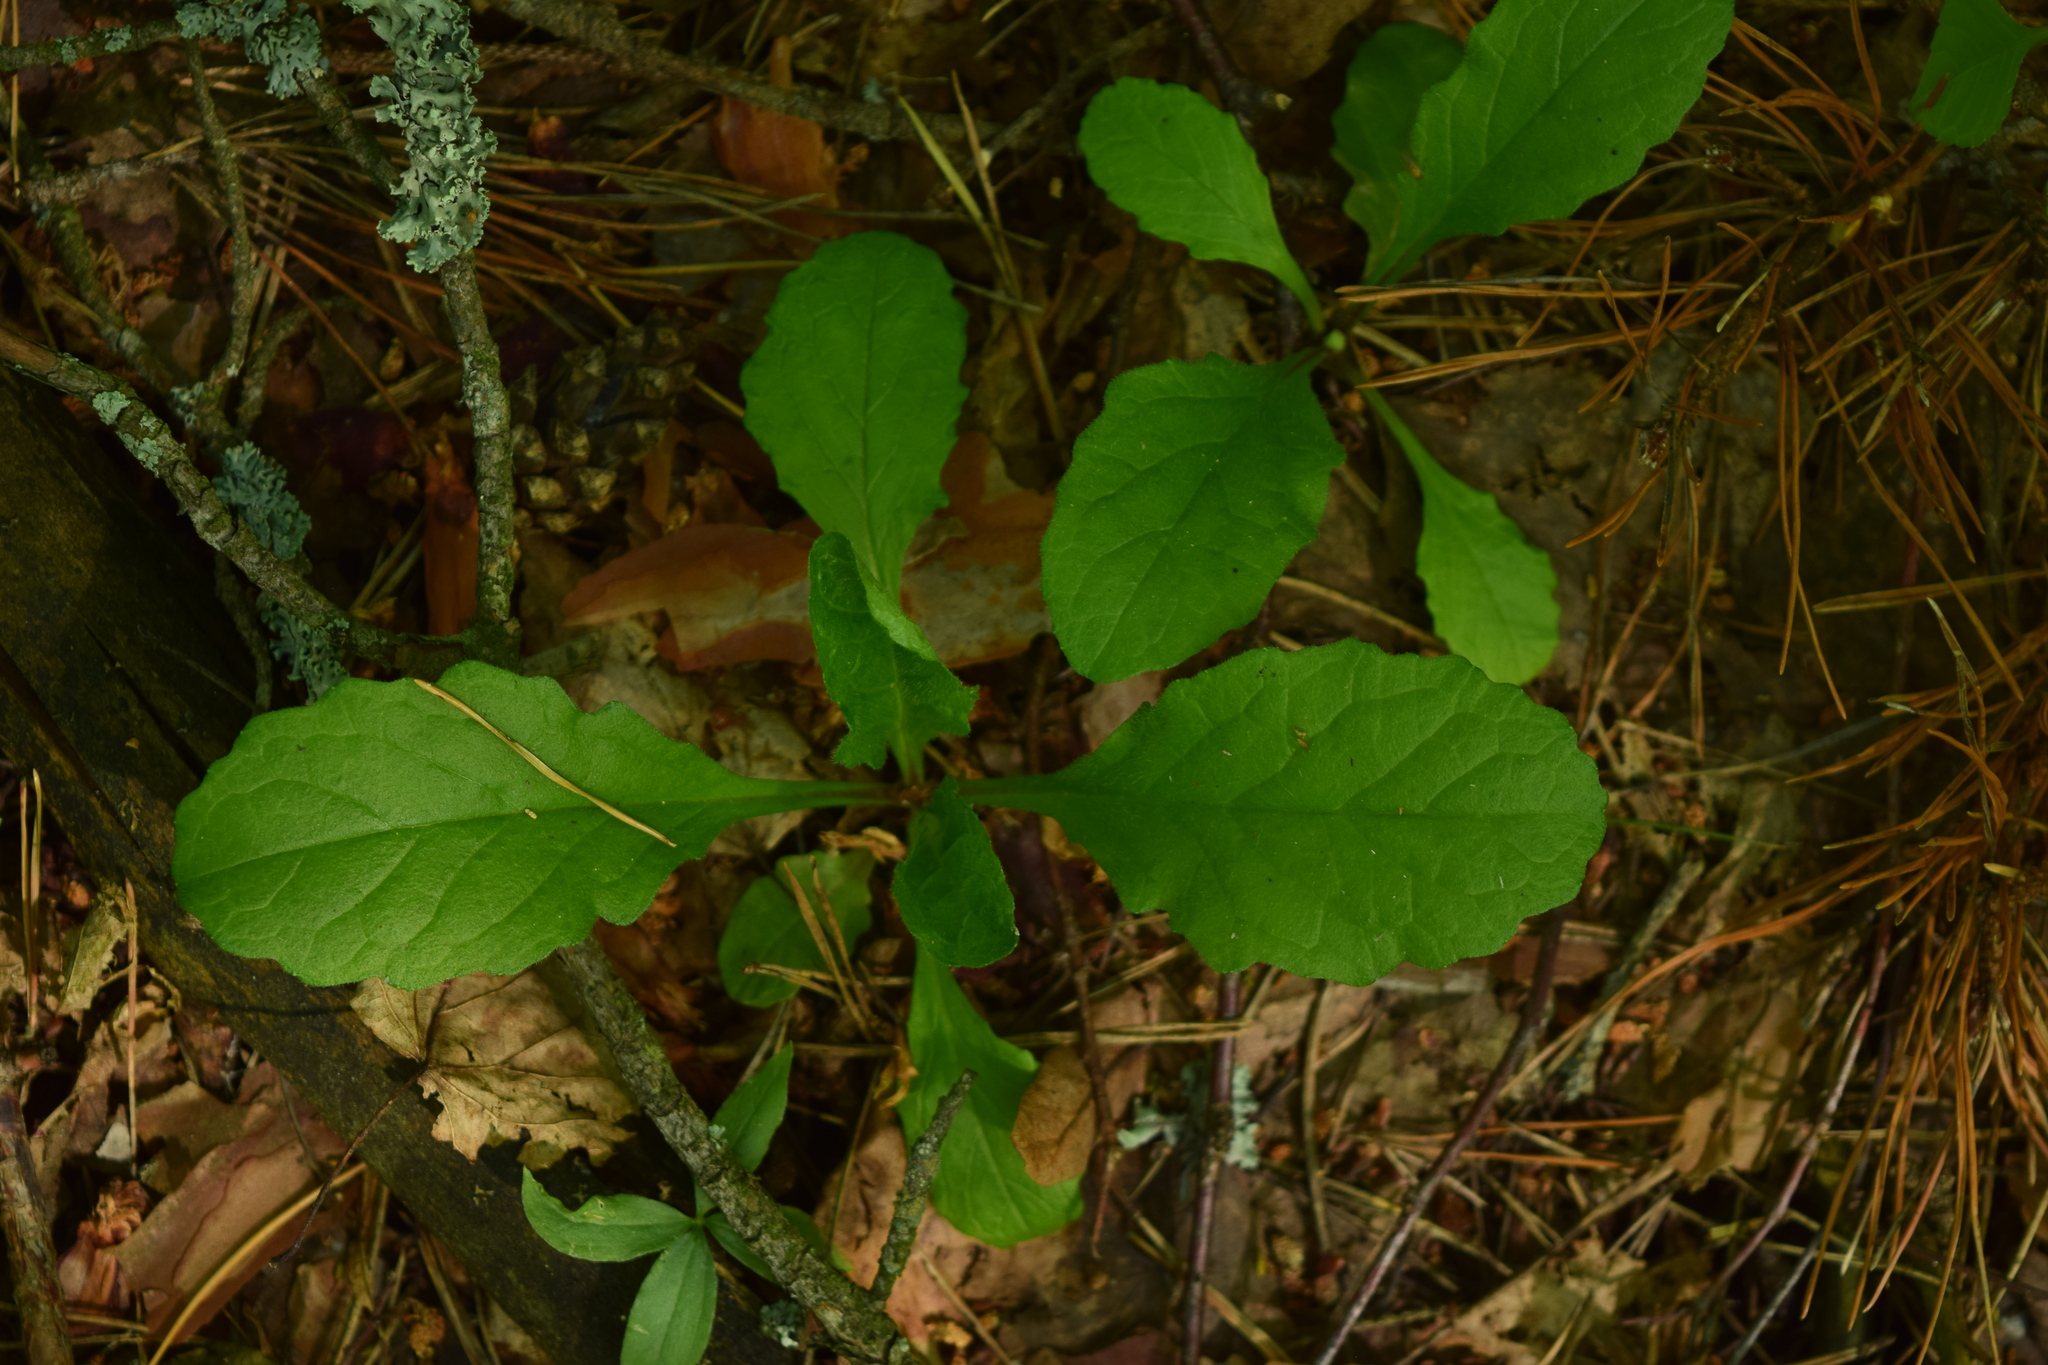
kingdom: Plantae
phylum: Tracheophyta
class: Magnoliopsida
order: Lamiales
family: Lamiaceae
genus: Ajuga
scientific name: Ajuga reptans
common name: Bugle
